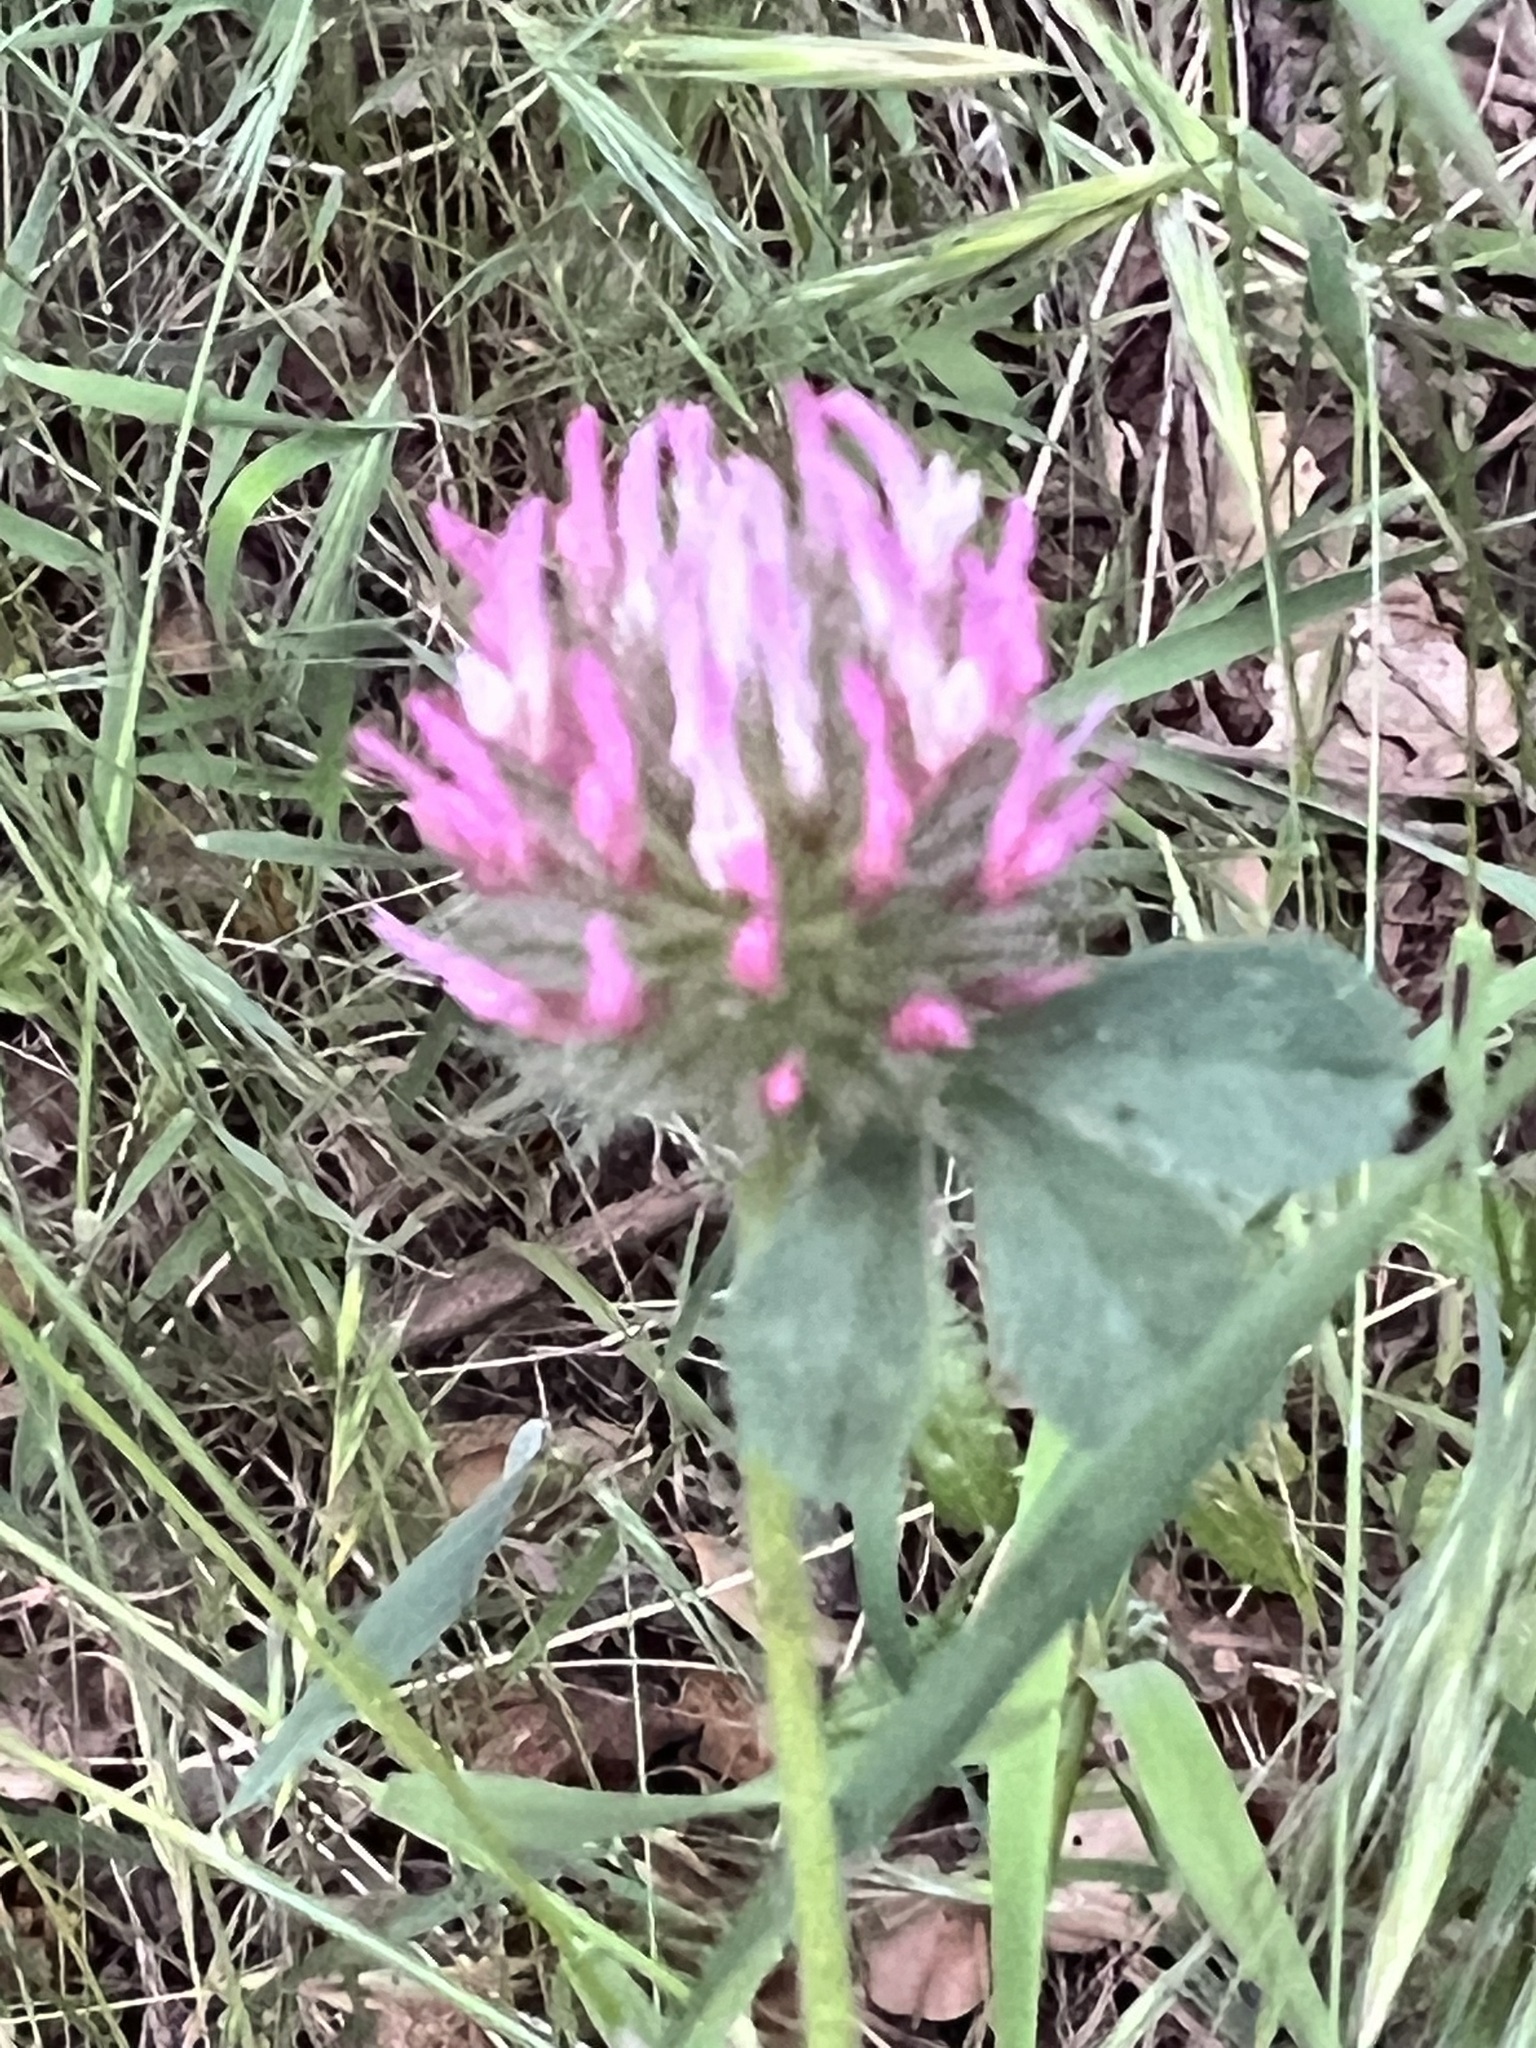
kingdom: Plantae
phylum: Tracheophyta
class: Magnoliopsida
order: Fabales
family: Fabaceae
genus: Trifolium
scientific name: Trifolium hirtum
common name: Rose clover
